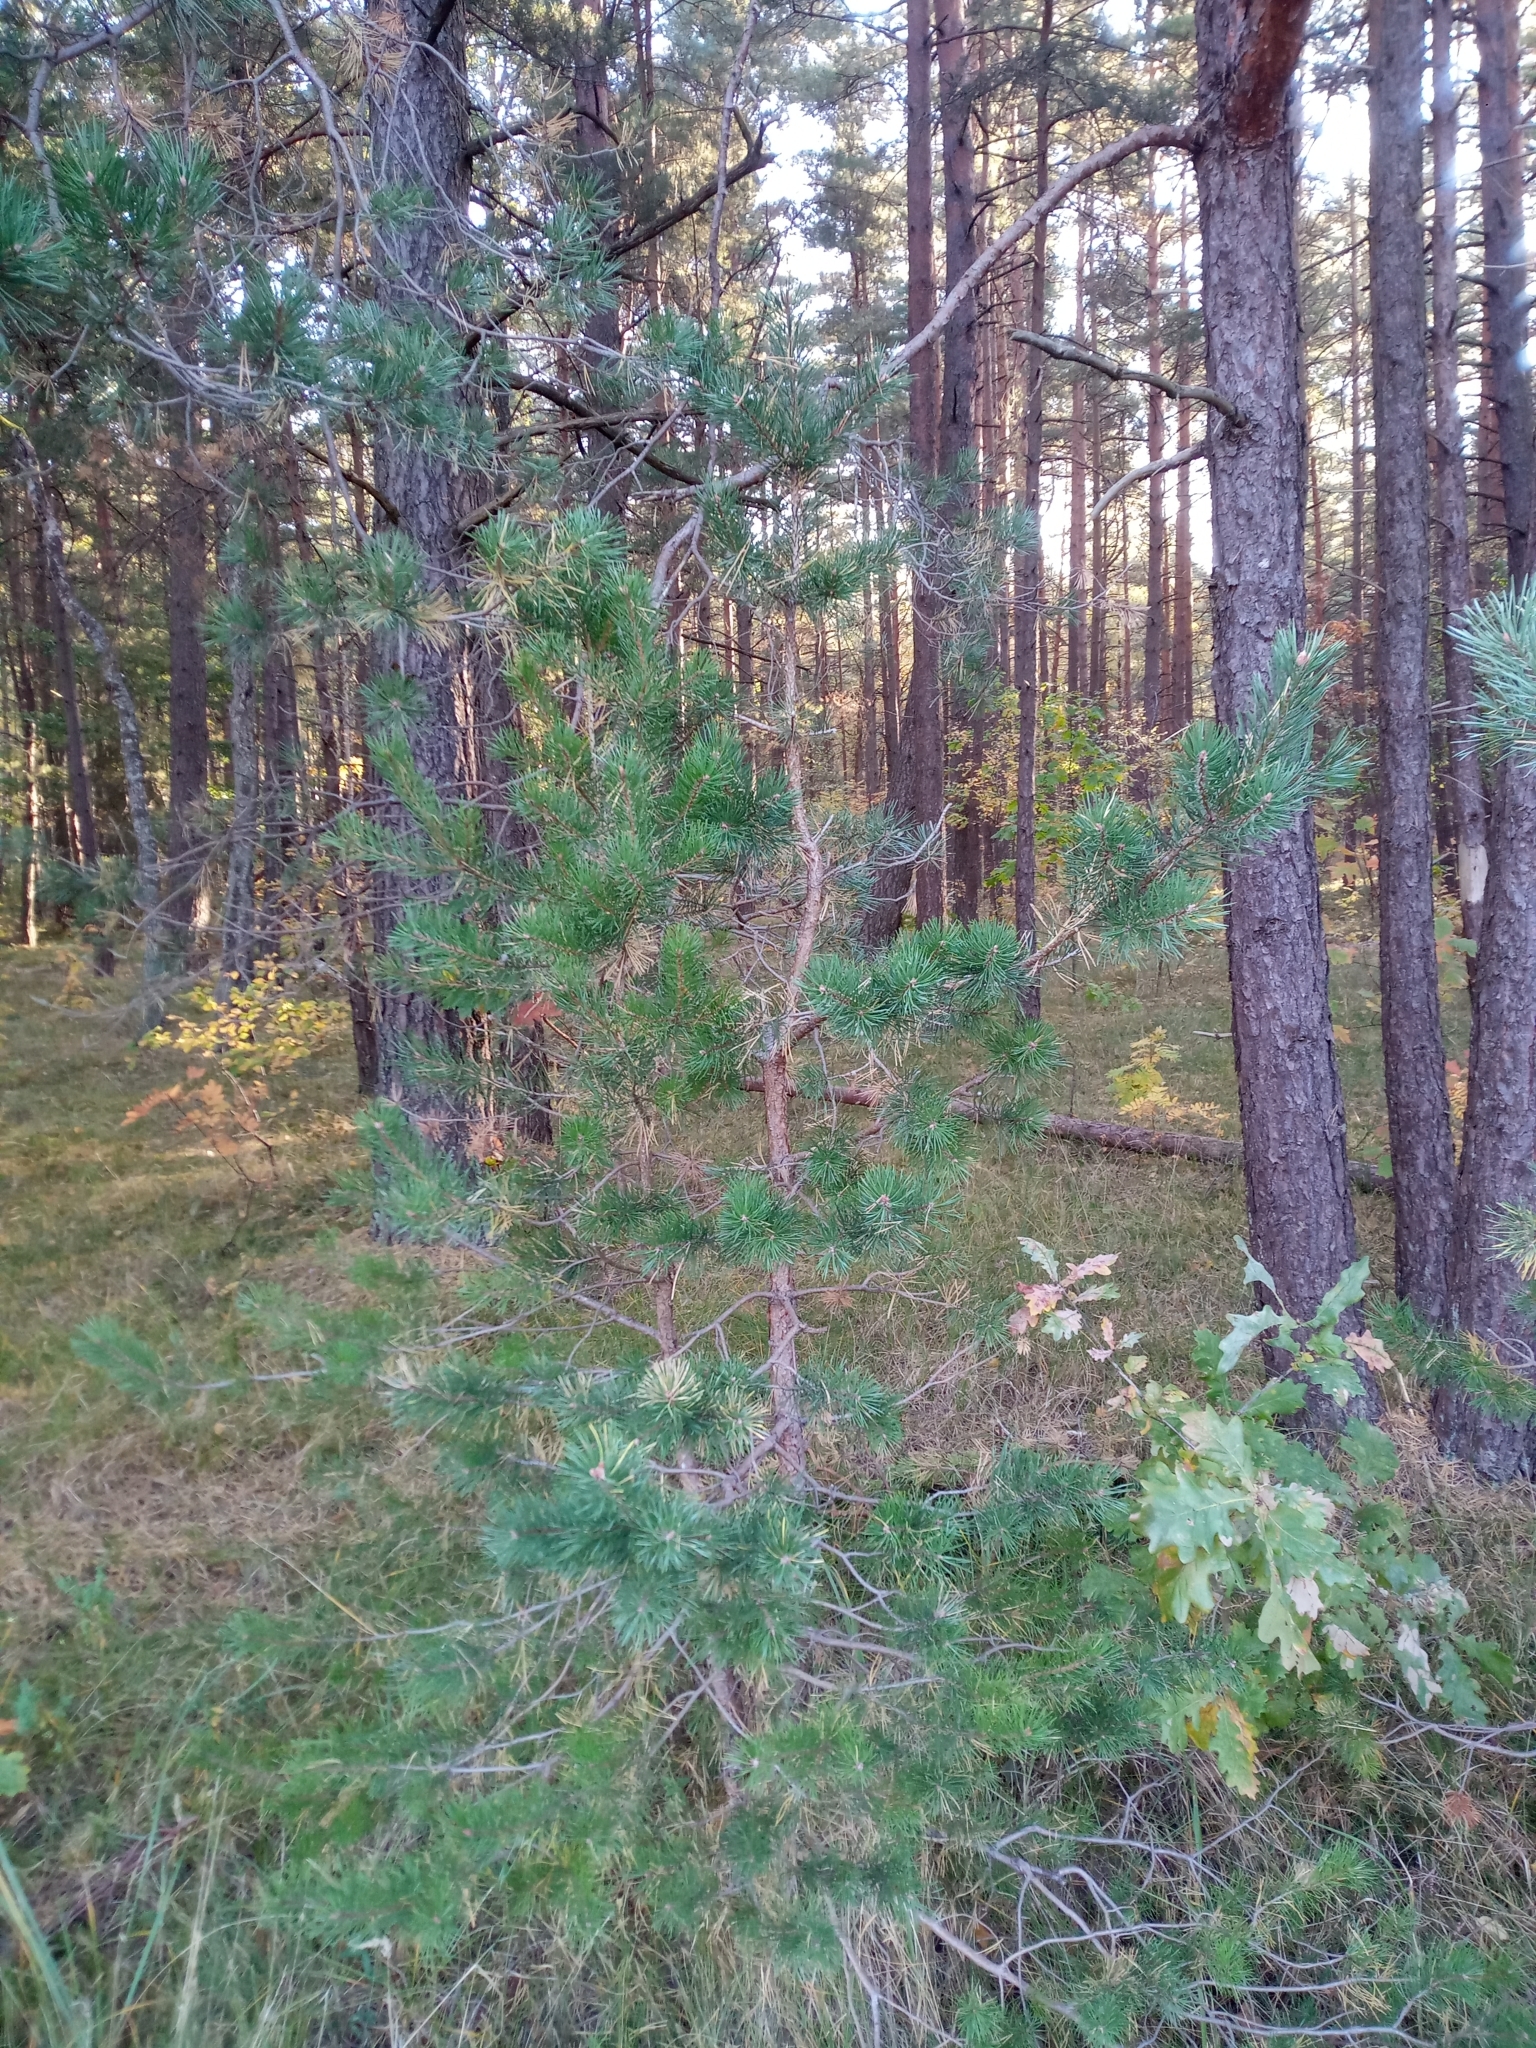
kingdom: Plantae
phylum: Tracheophyta
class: Pinopsida
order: Pinales
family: Pinaceae
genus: Pinus
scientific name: Pinus sylvestris
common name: Scots pine
